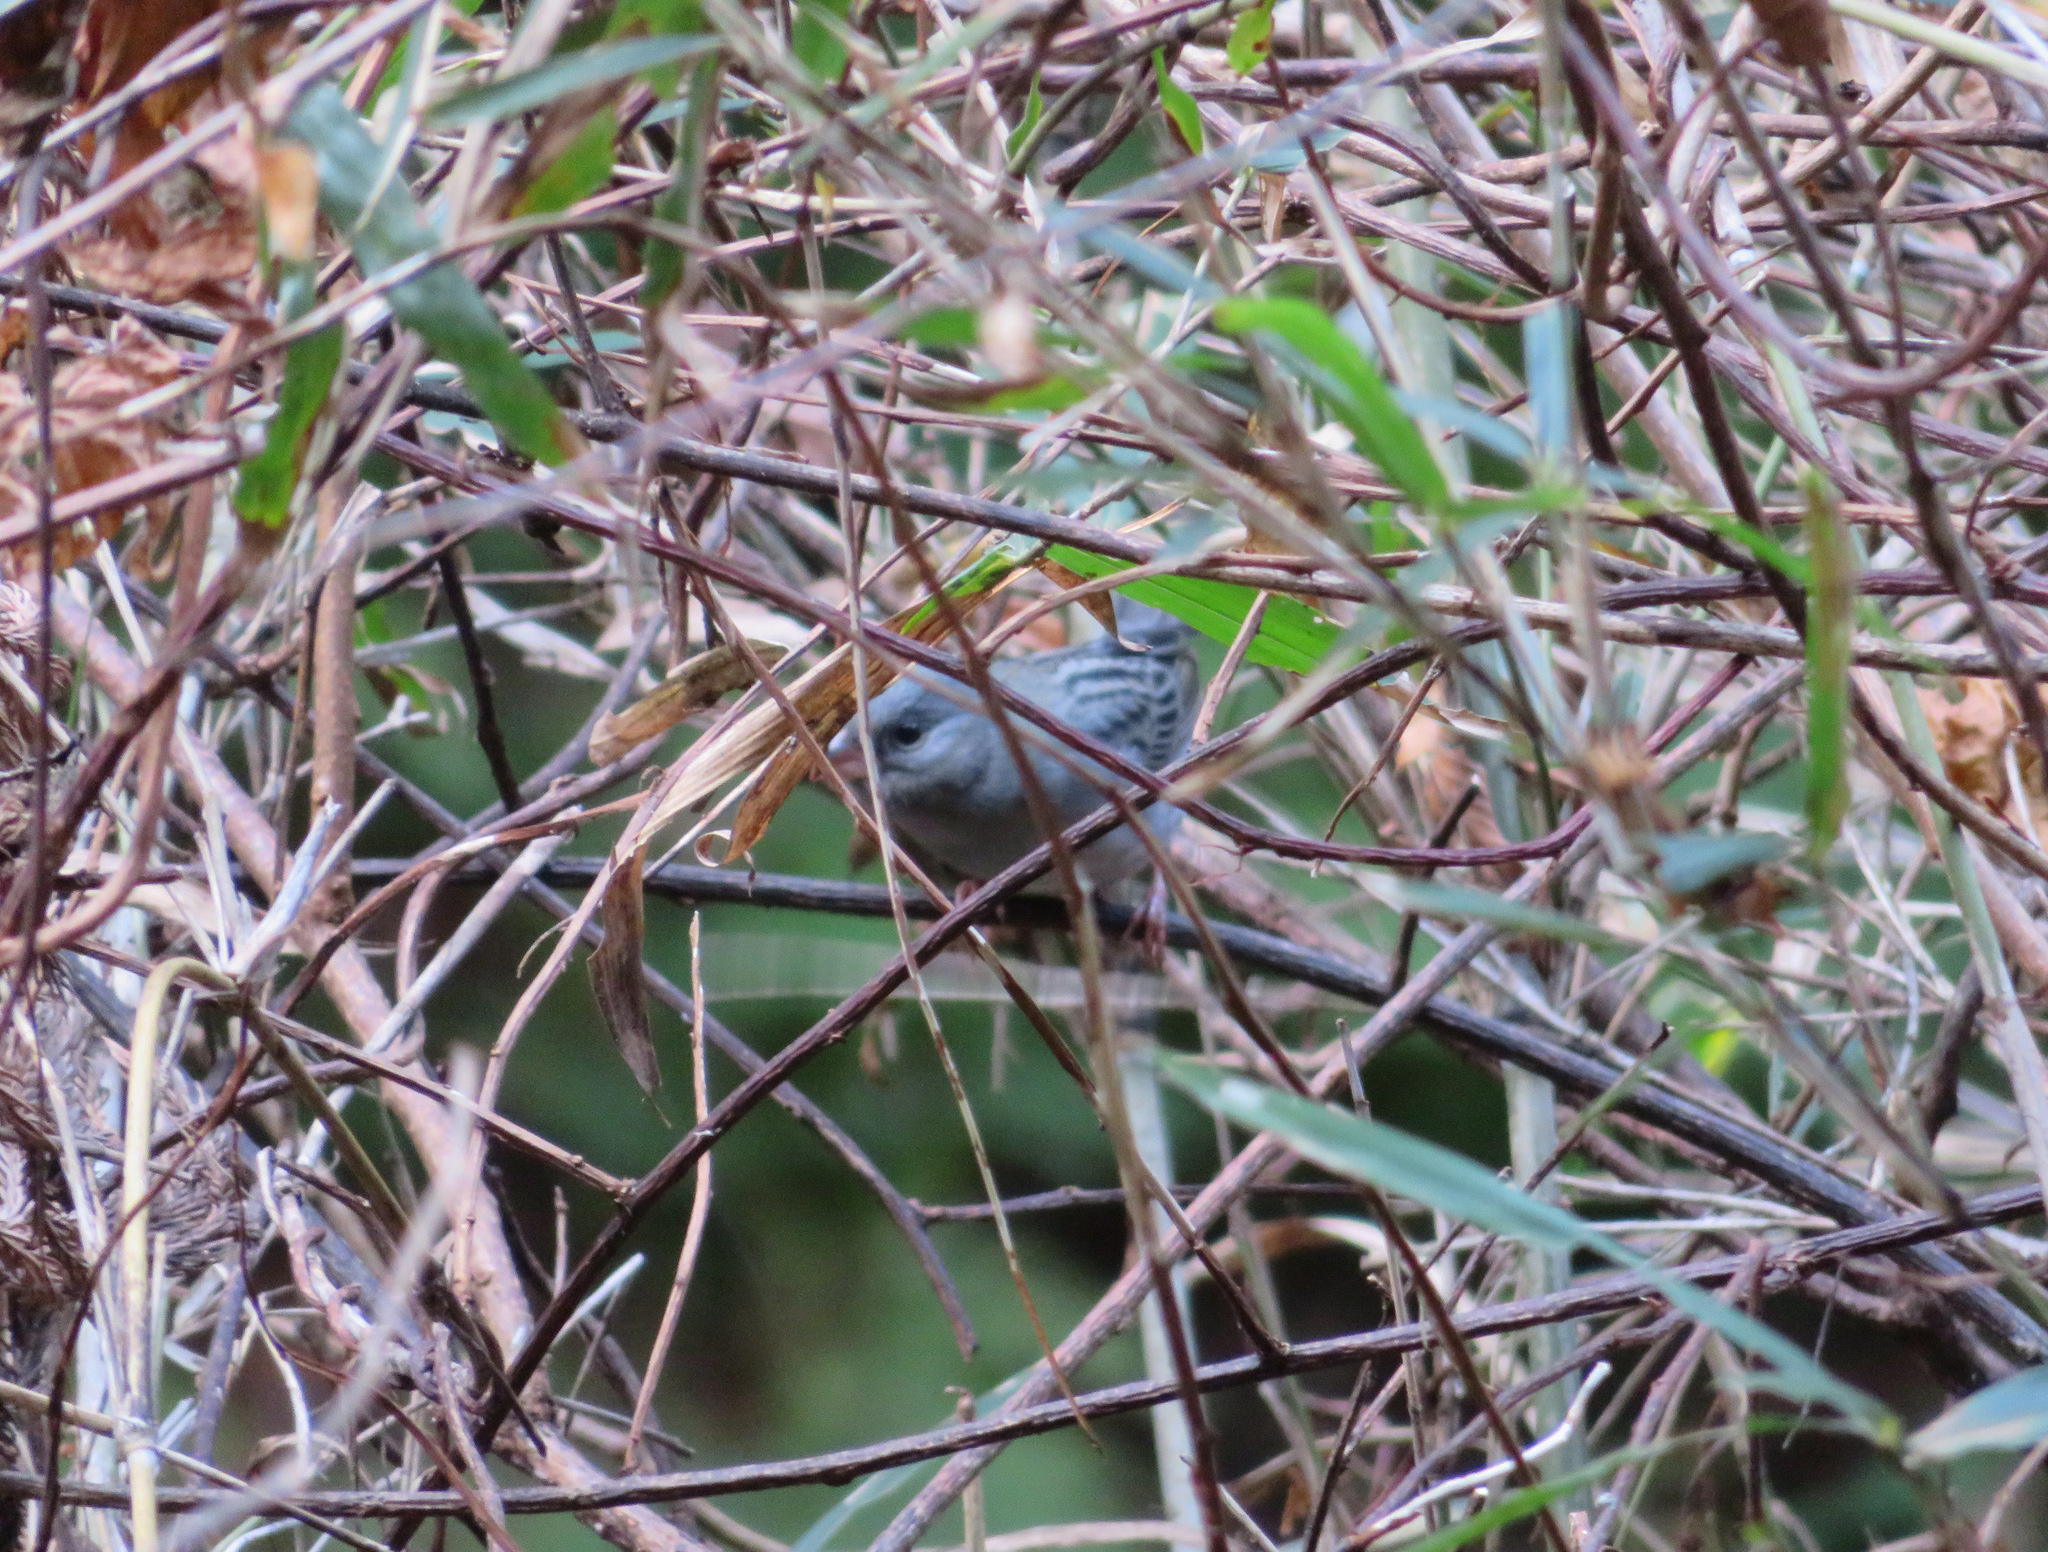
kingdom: Animalia
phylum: Chordata
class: Aves
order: Passeriformes
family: Emberizidae
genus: Emberiza
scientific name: Emberiza variabilis
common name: Gray bunting
